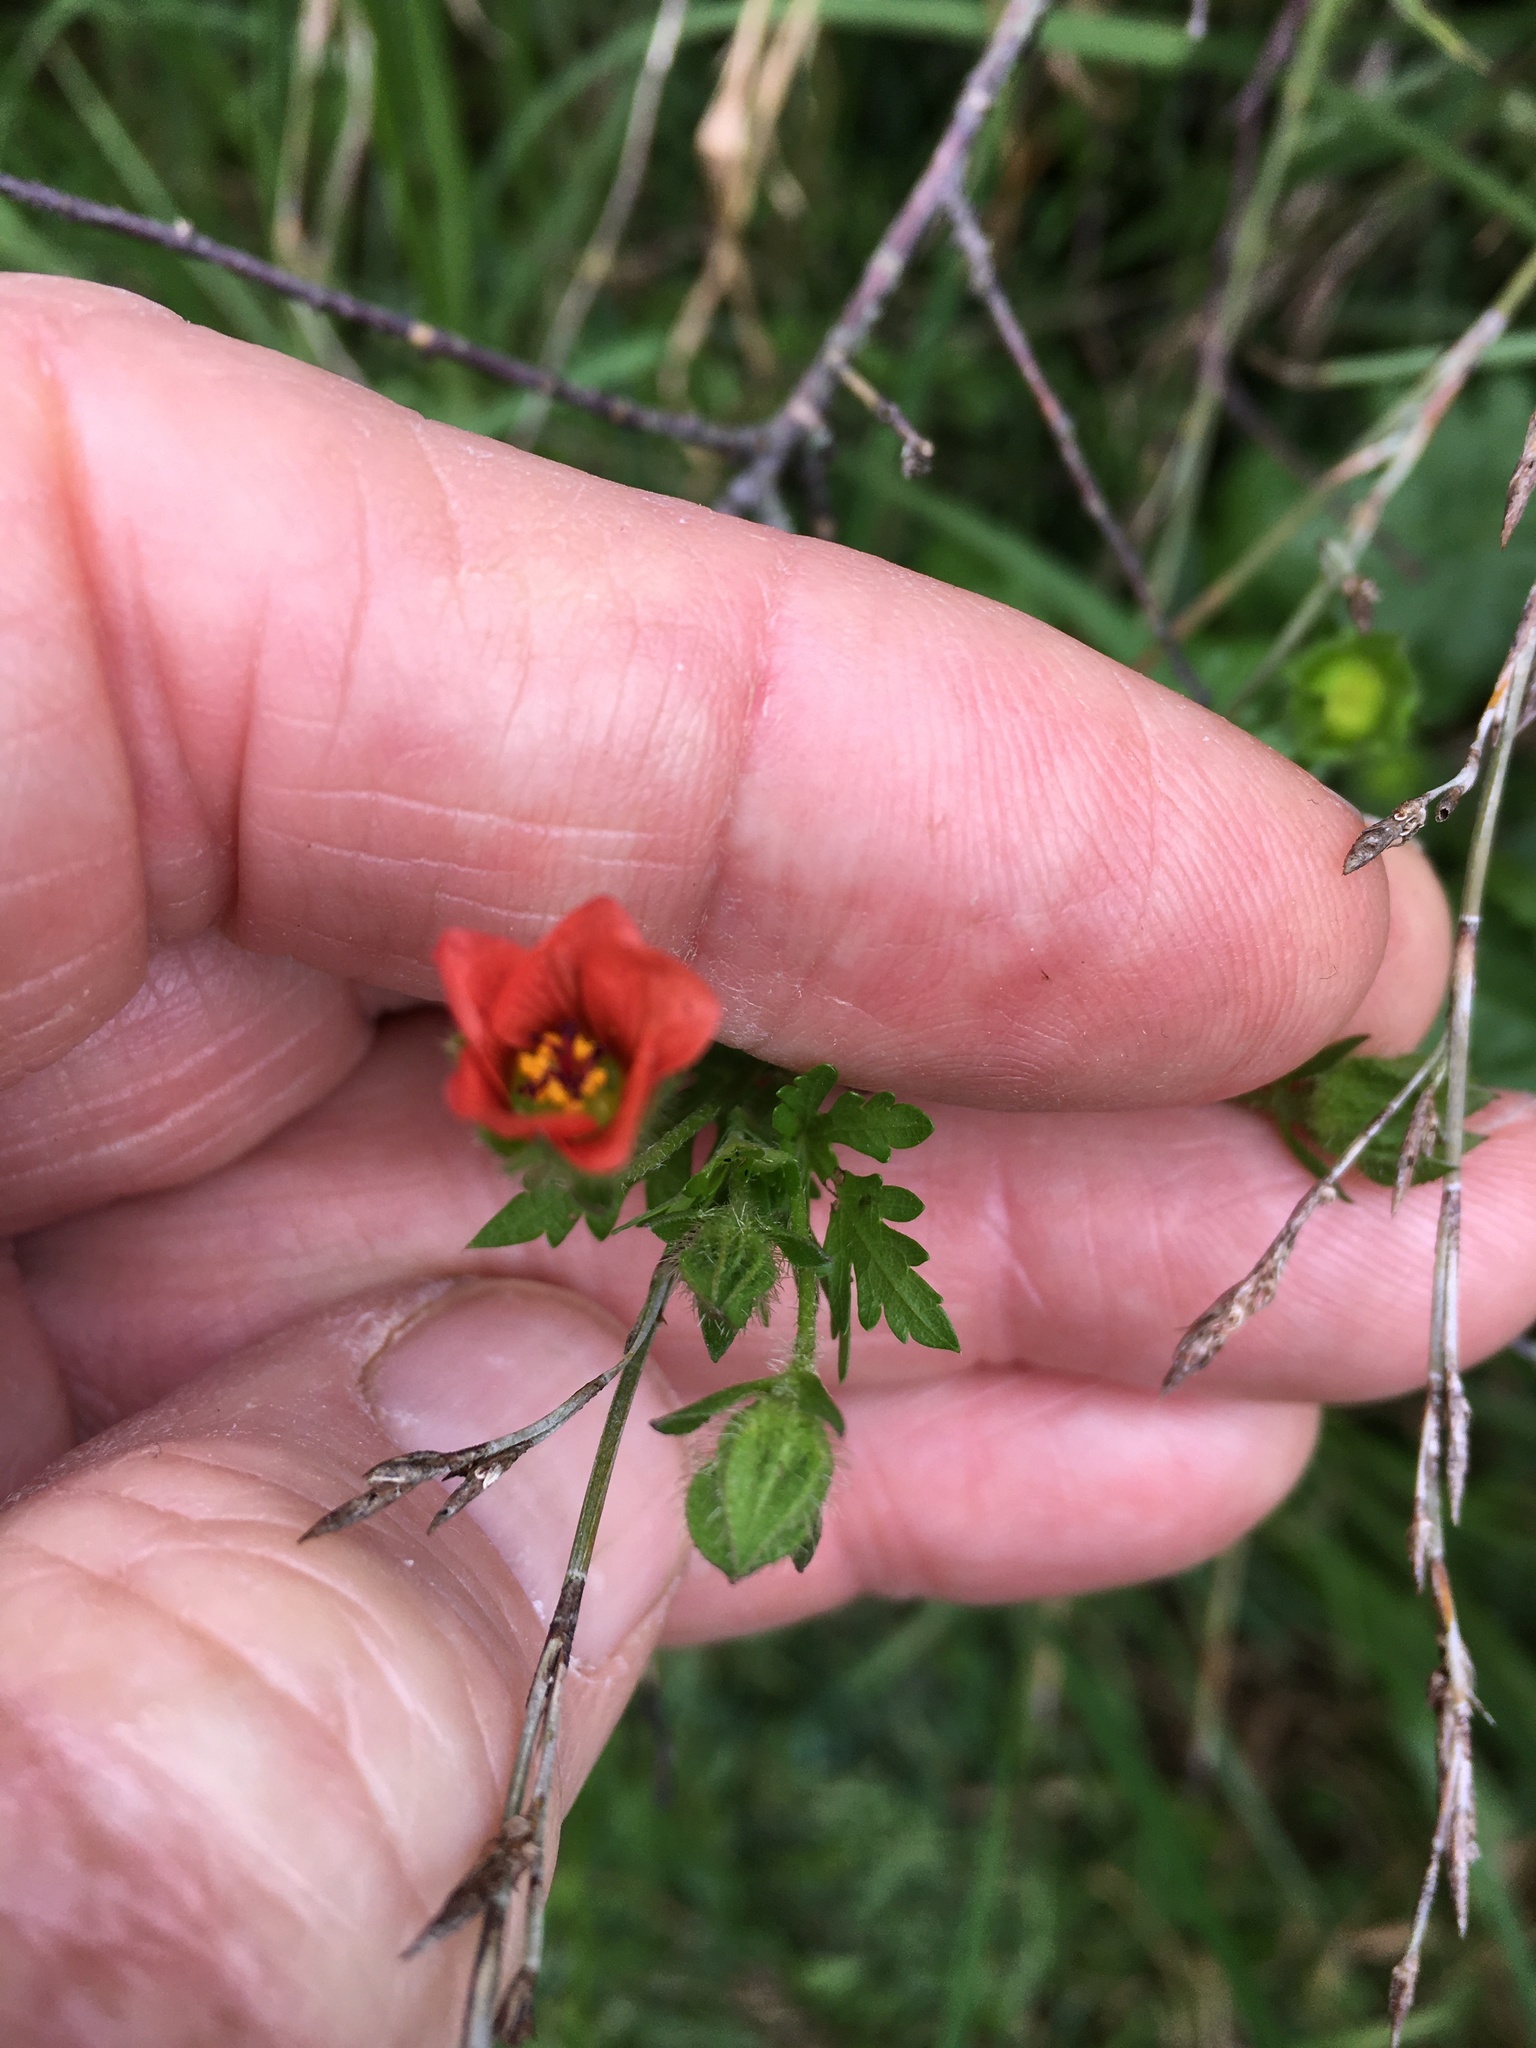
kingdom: Plantae
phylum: Tracheophyta
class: Magnoliopsida
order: Malvales
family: Malvaceae
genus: Modiola
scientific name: Modiola caroliniana
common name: Carolina bristlemallow
